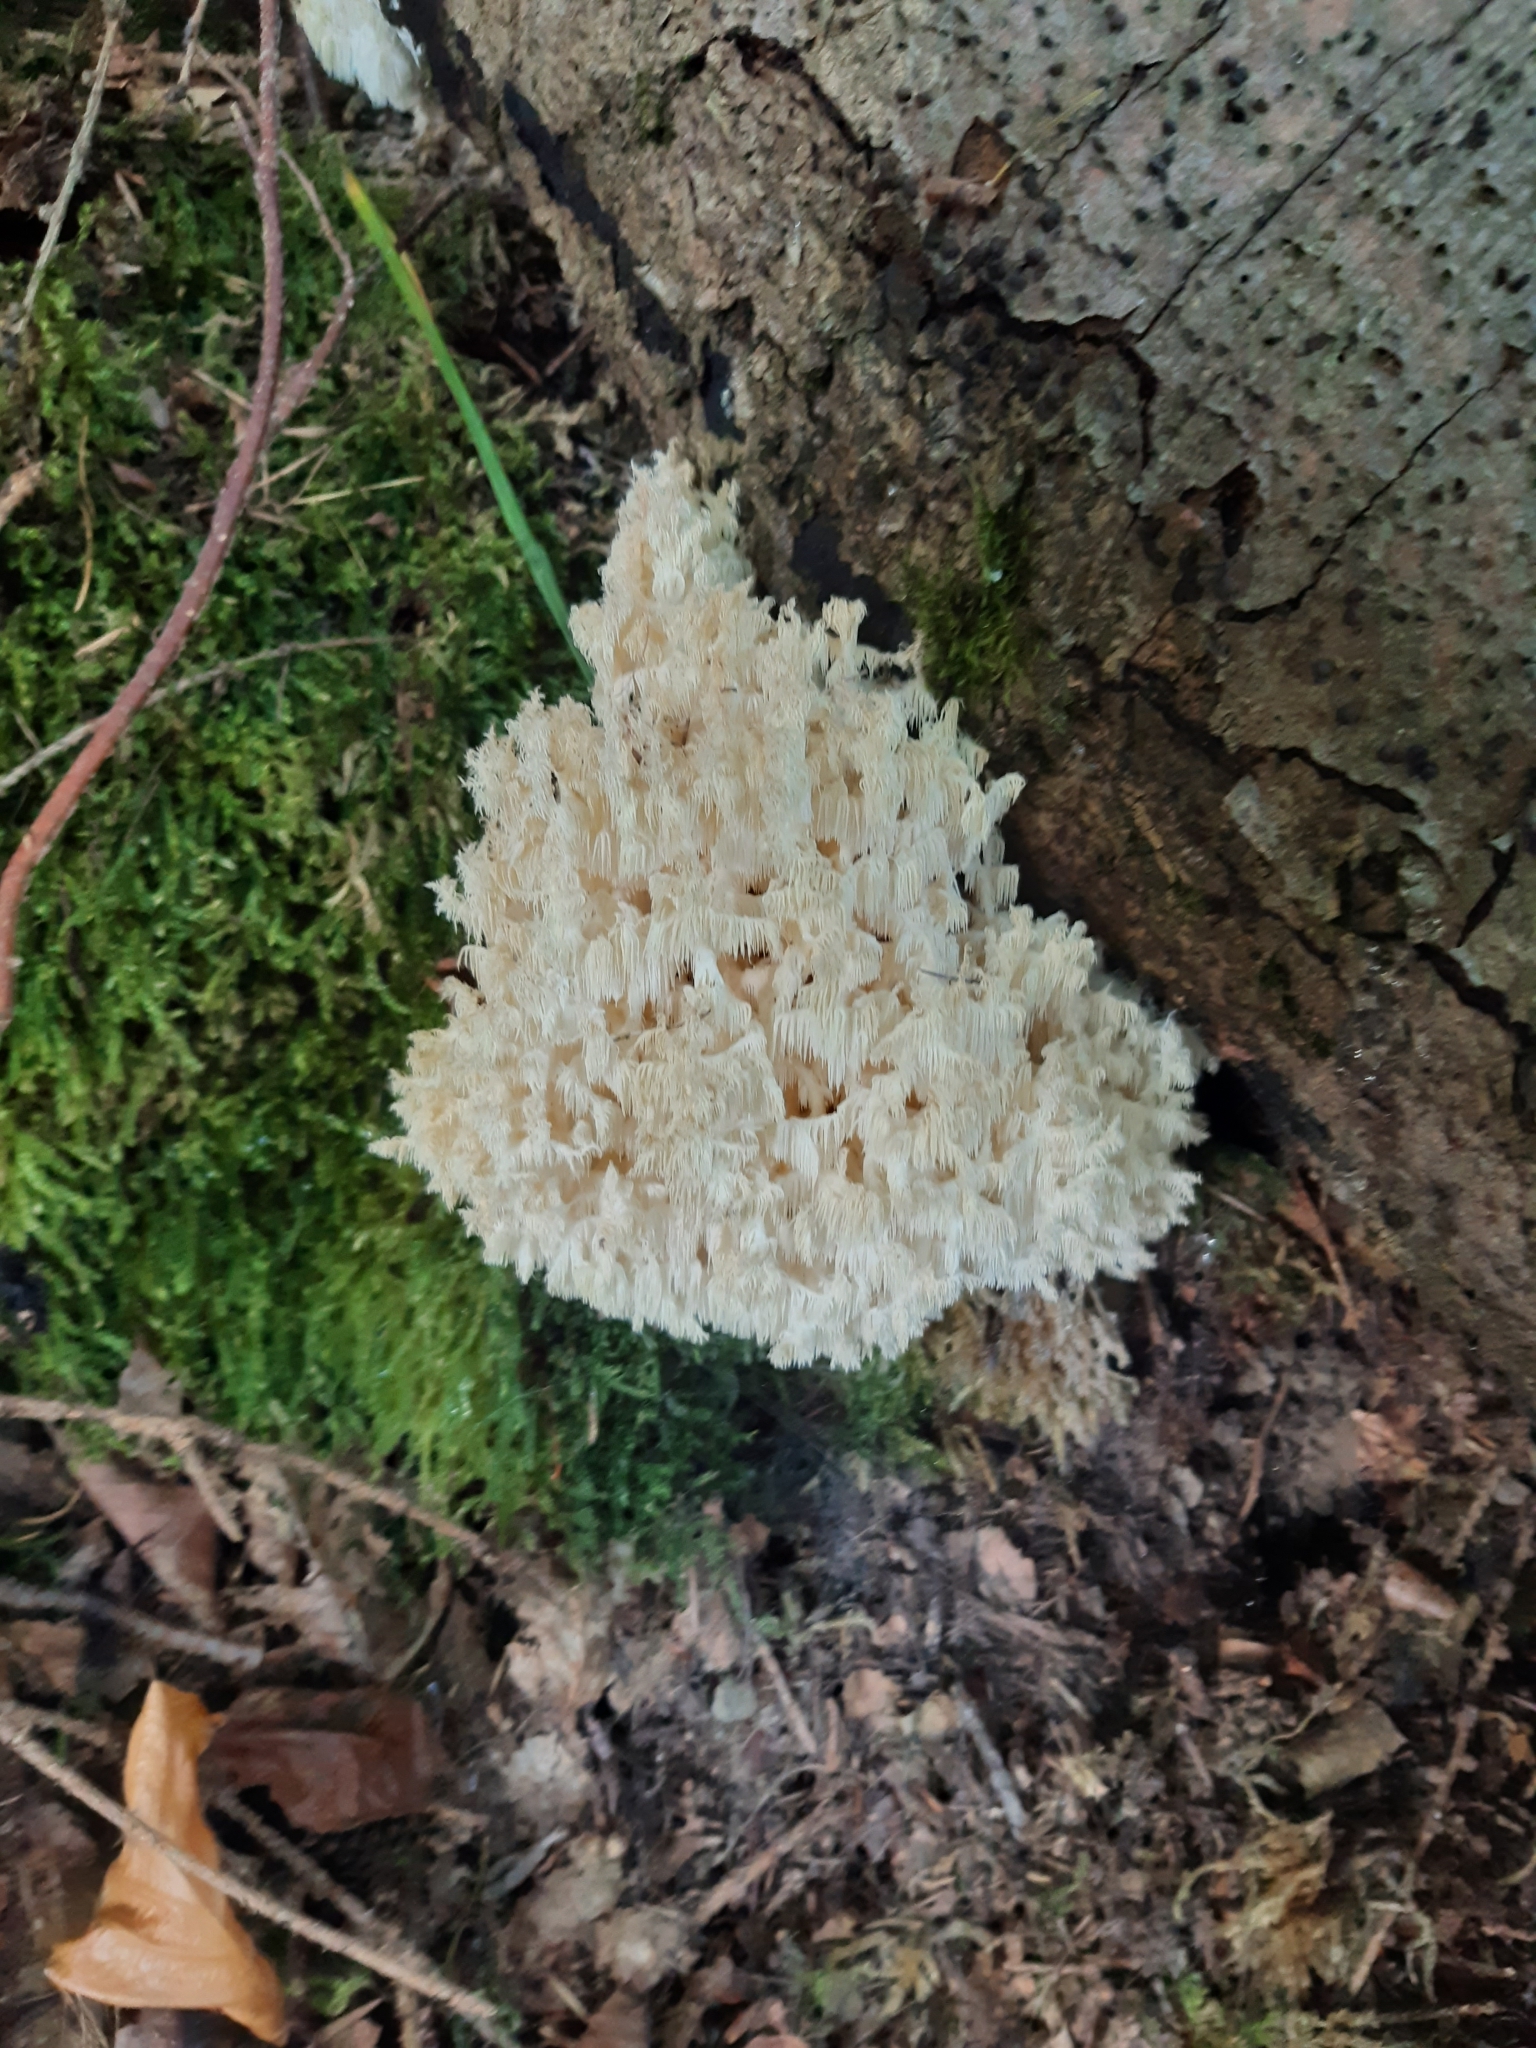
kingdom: Fungi
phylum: Basidiomycota
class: Agaricomycetes
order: Russulales
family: Hericiaceae
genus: Hericium
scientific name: Hericium coralloides
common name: Coral tooth
